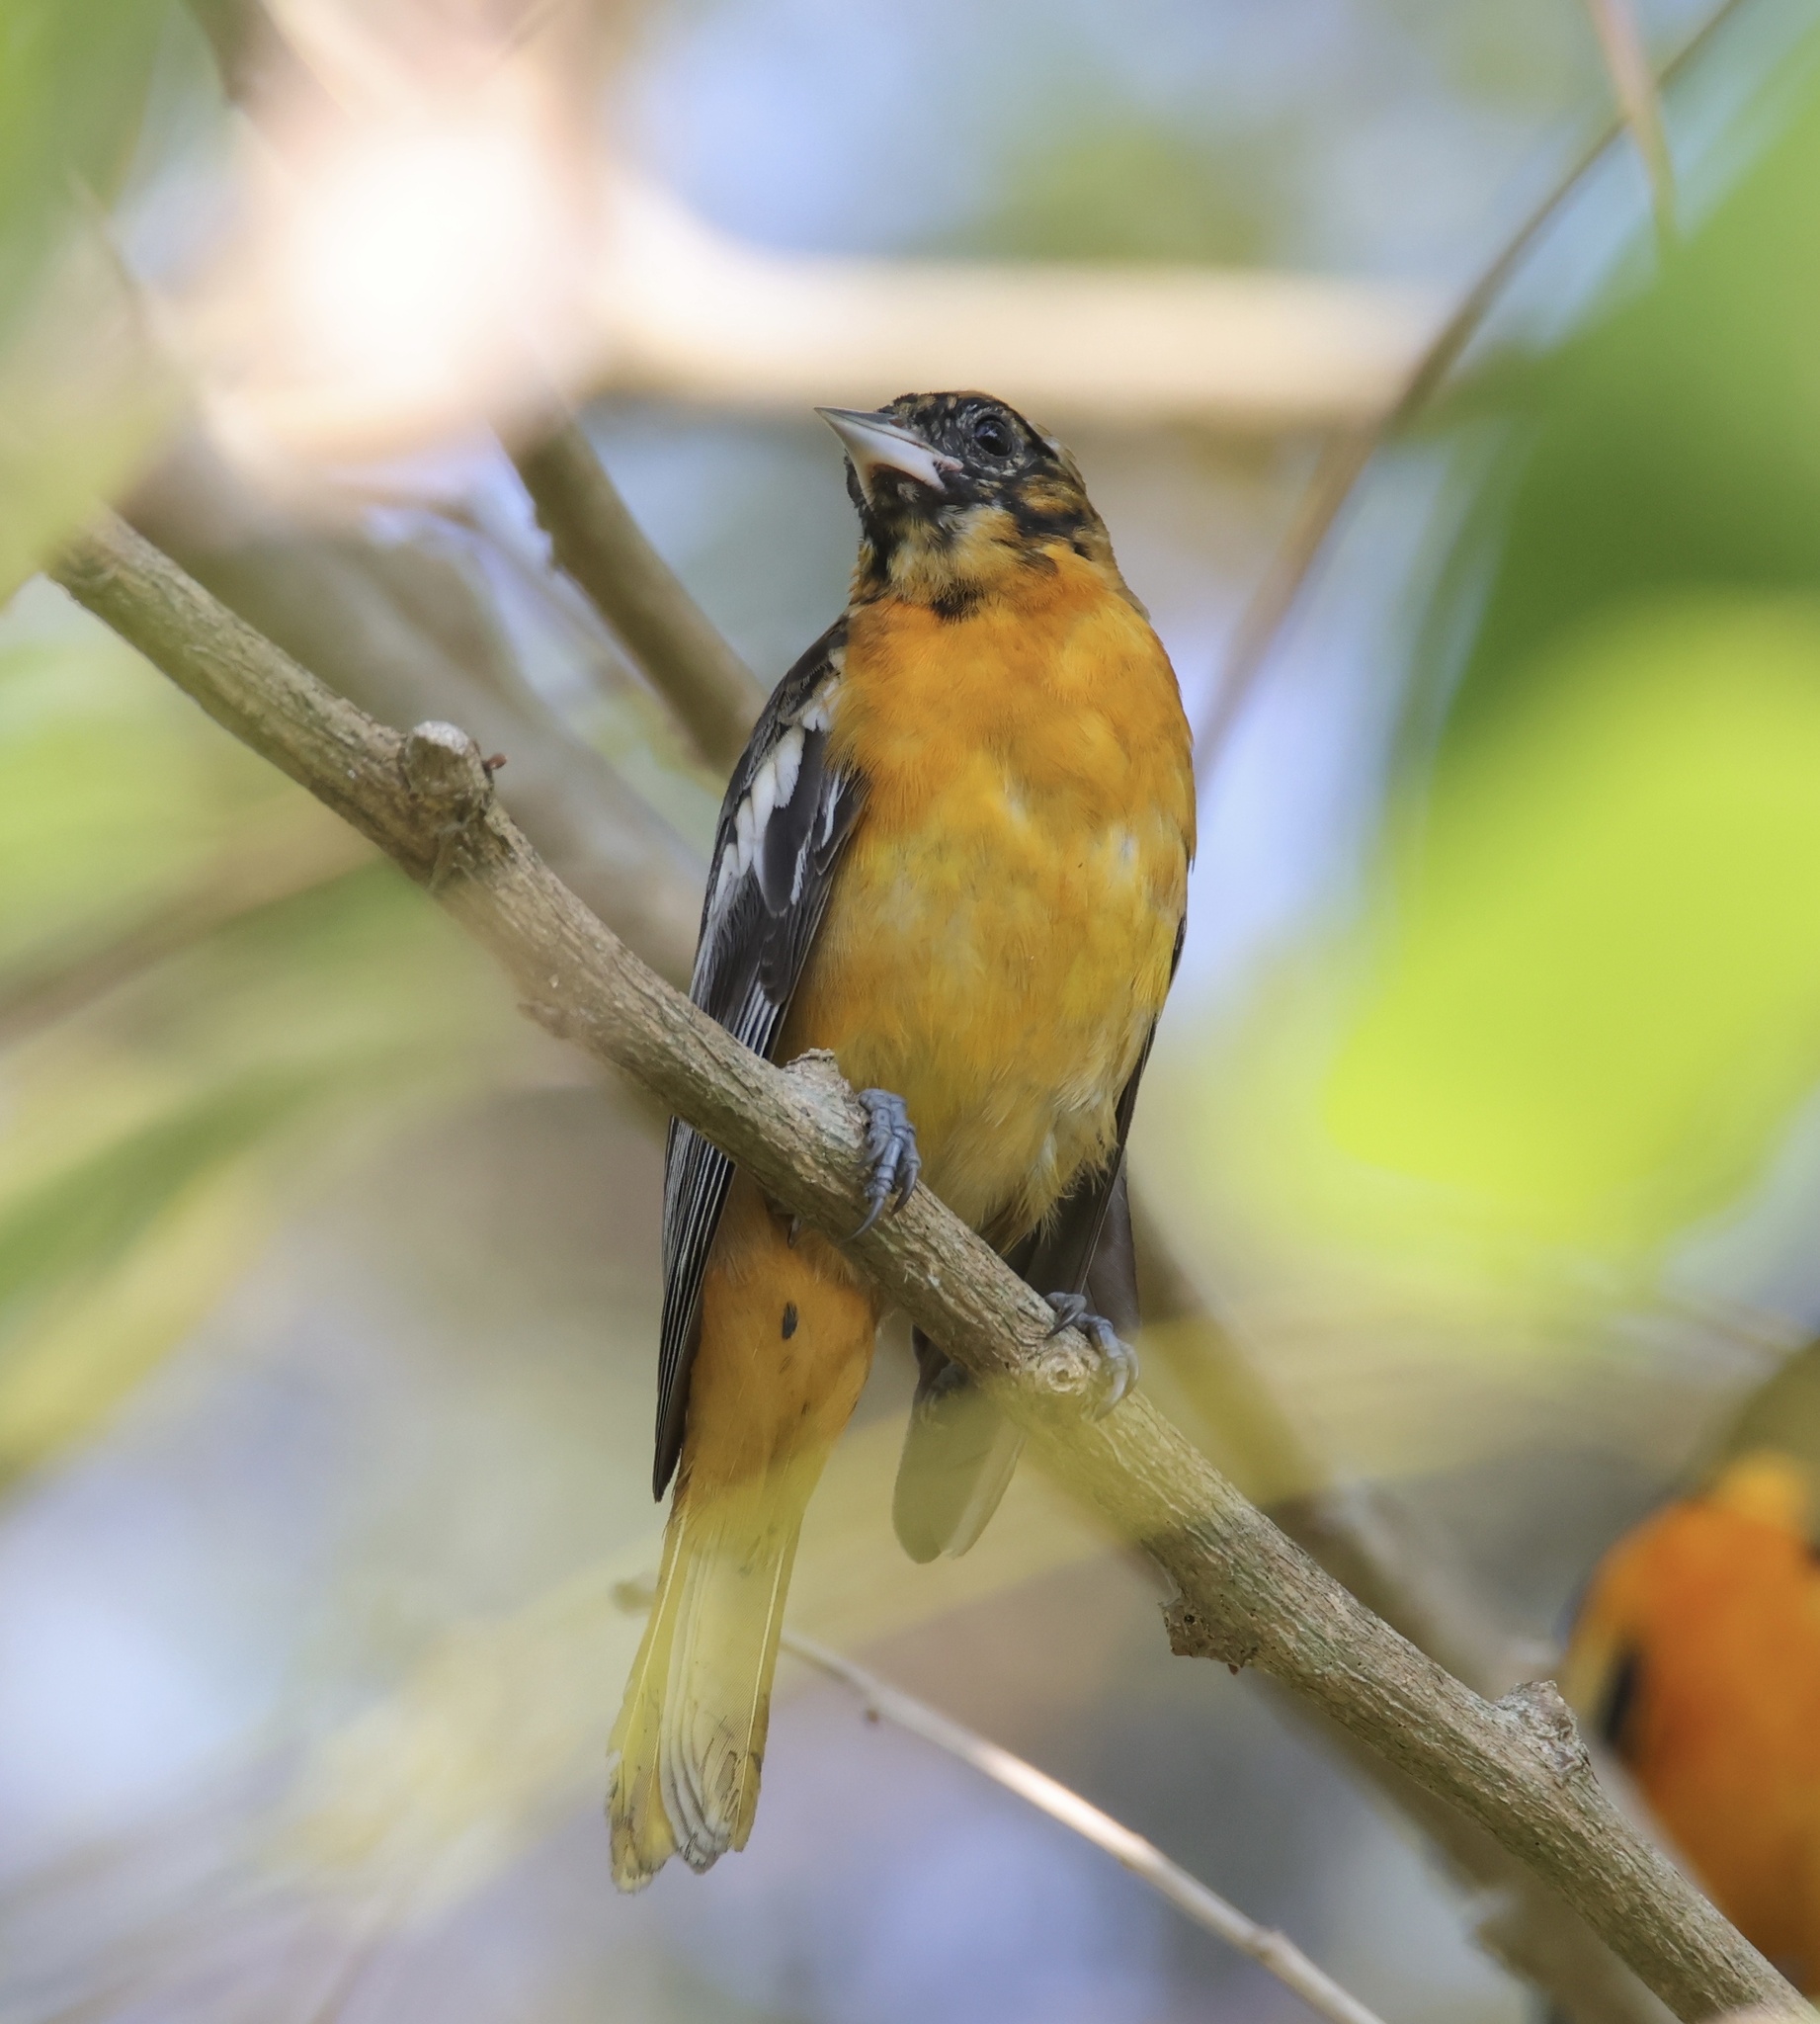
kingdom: Animalia
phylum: Chordata
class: Aves
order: Passeriformes
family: Icteridae
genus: Icterus
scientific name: Icterus galbula
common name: Baltimore oriole
